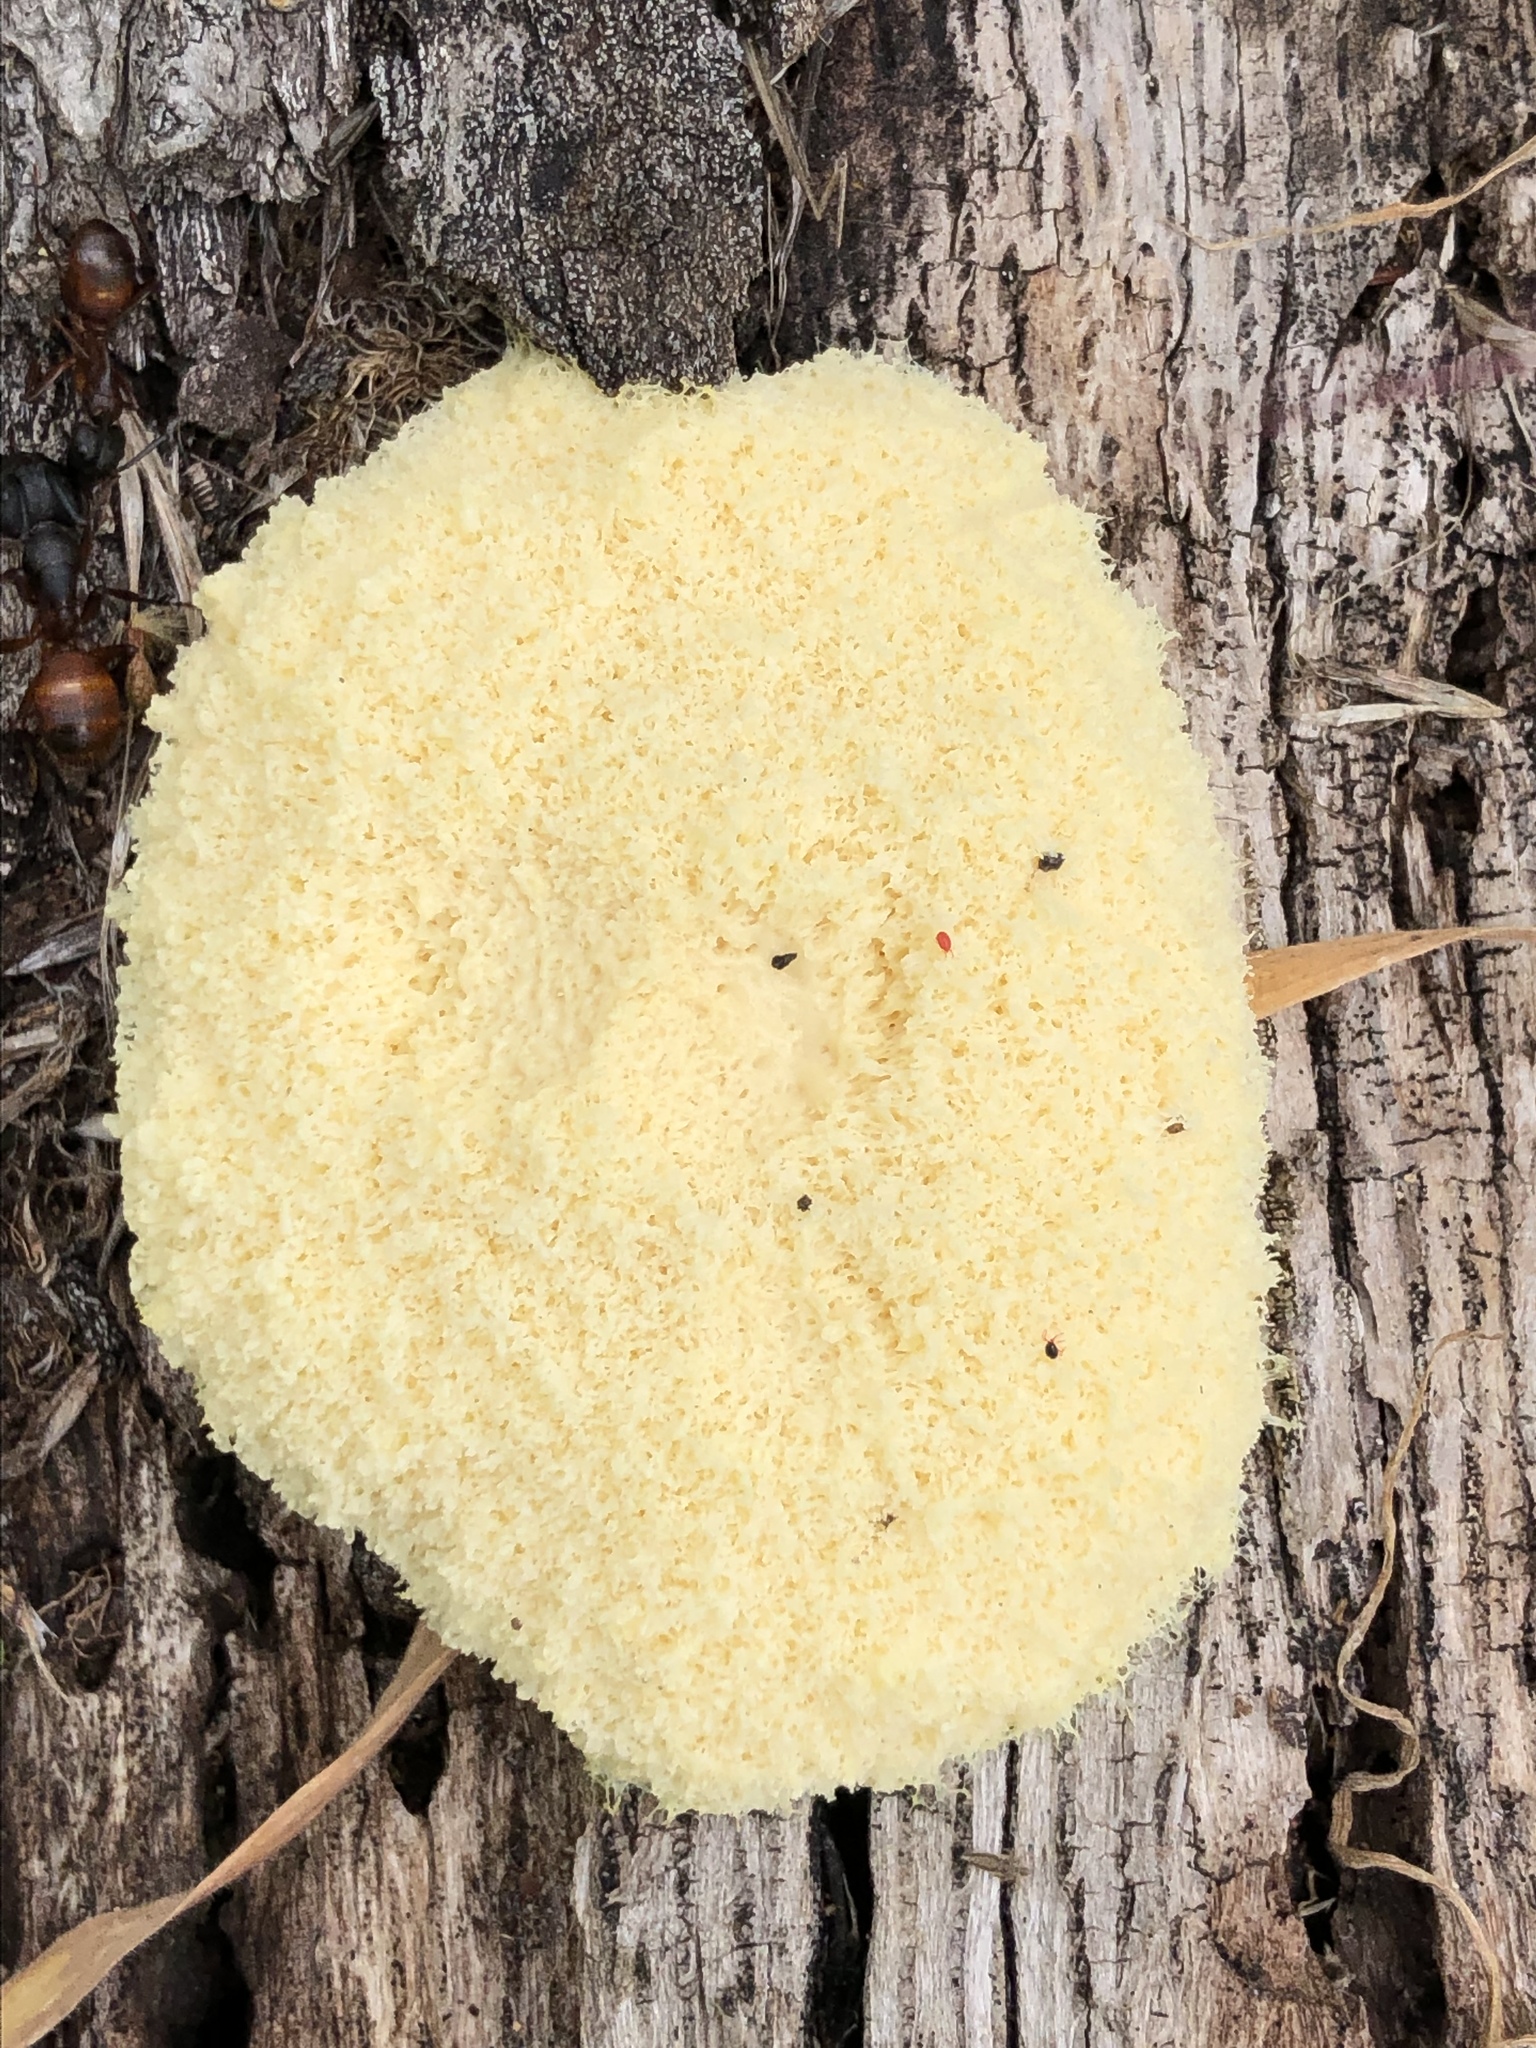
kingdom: Protozoa
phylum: Mycetozoa
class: Myxomycetes
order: Physarales
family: Physaraceae
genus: Fuligo
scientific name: Fuligo septica
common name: Dog vomit slime mold
